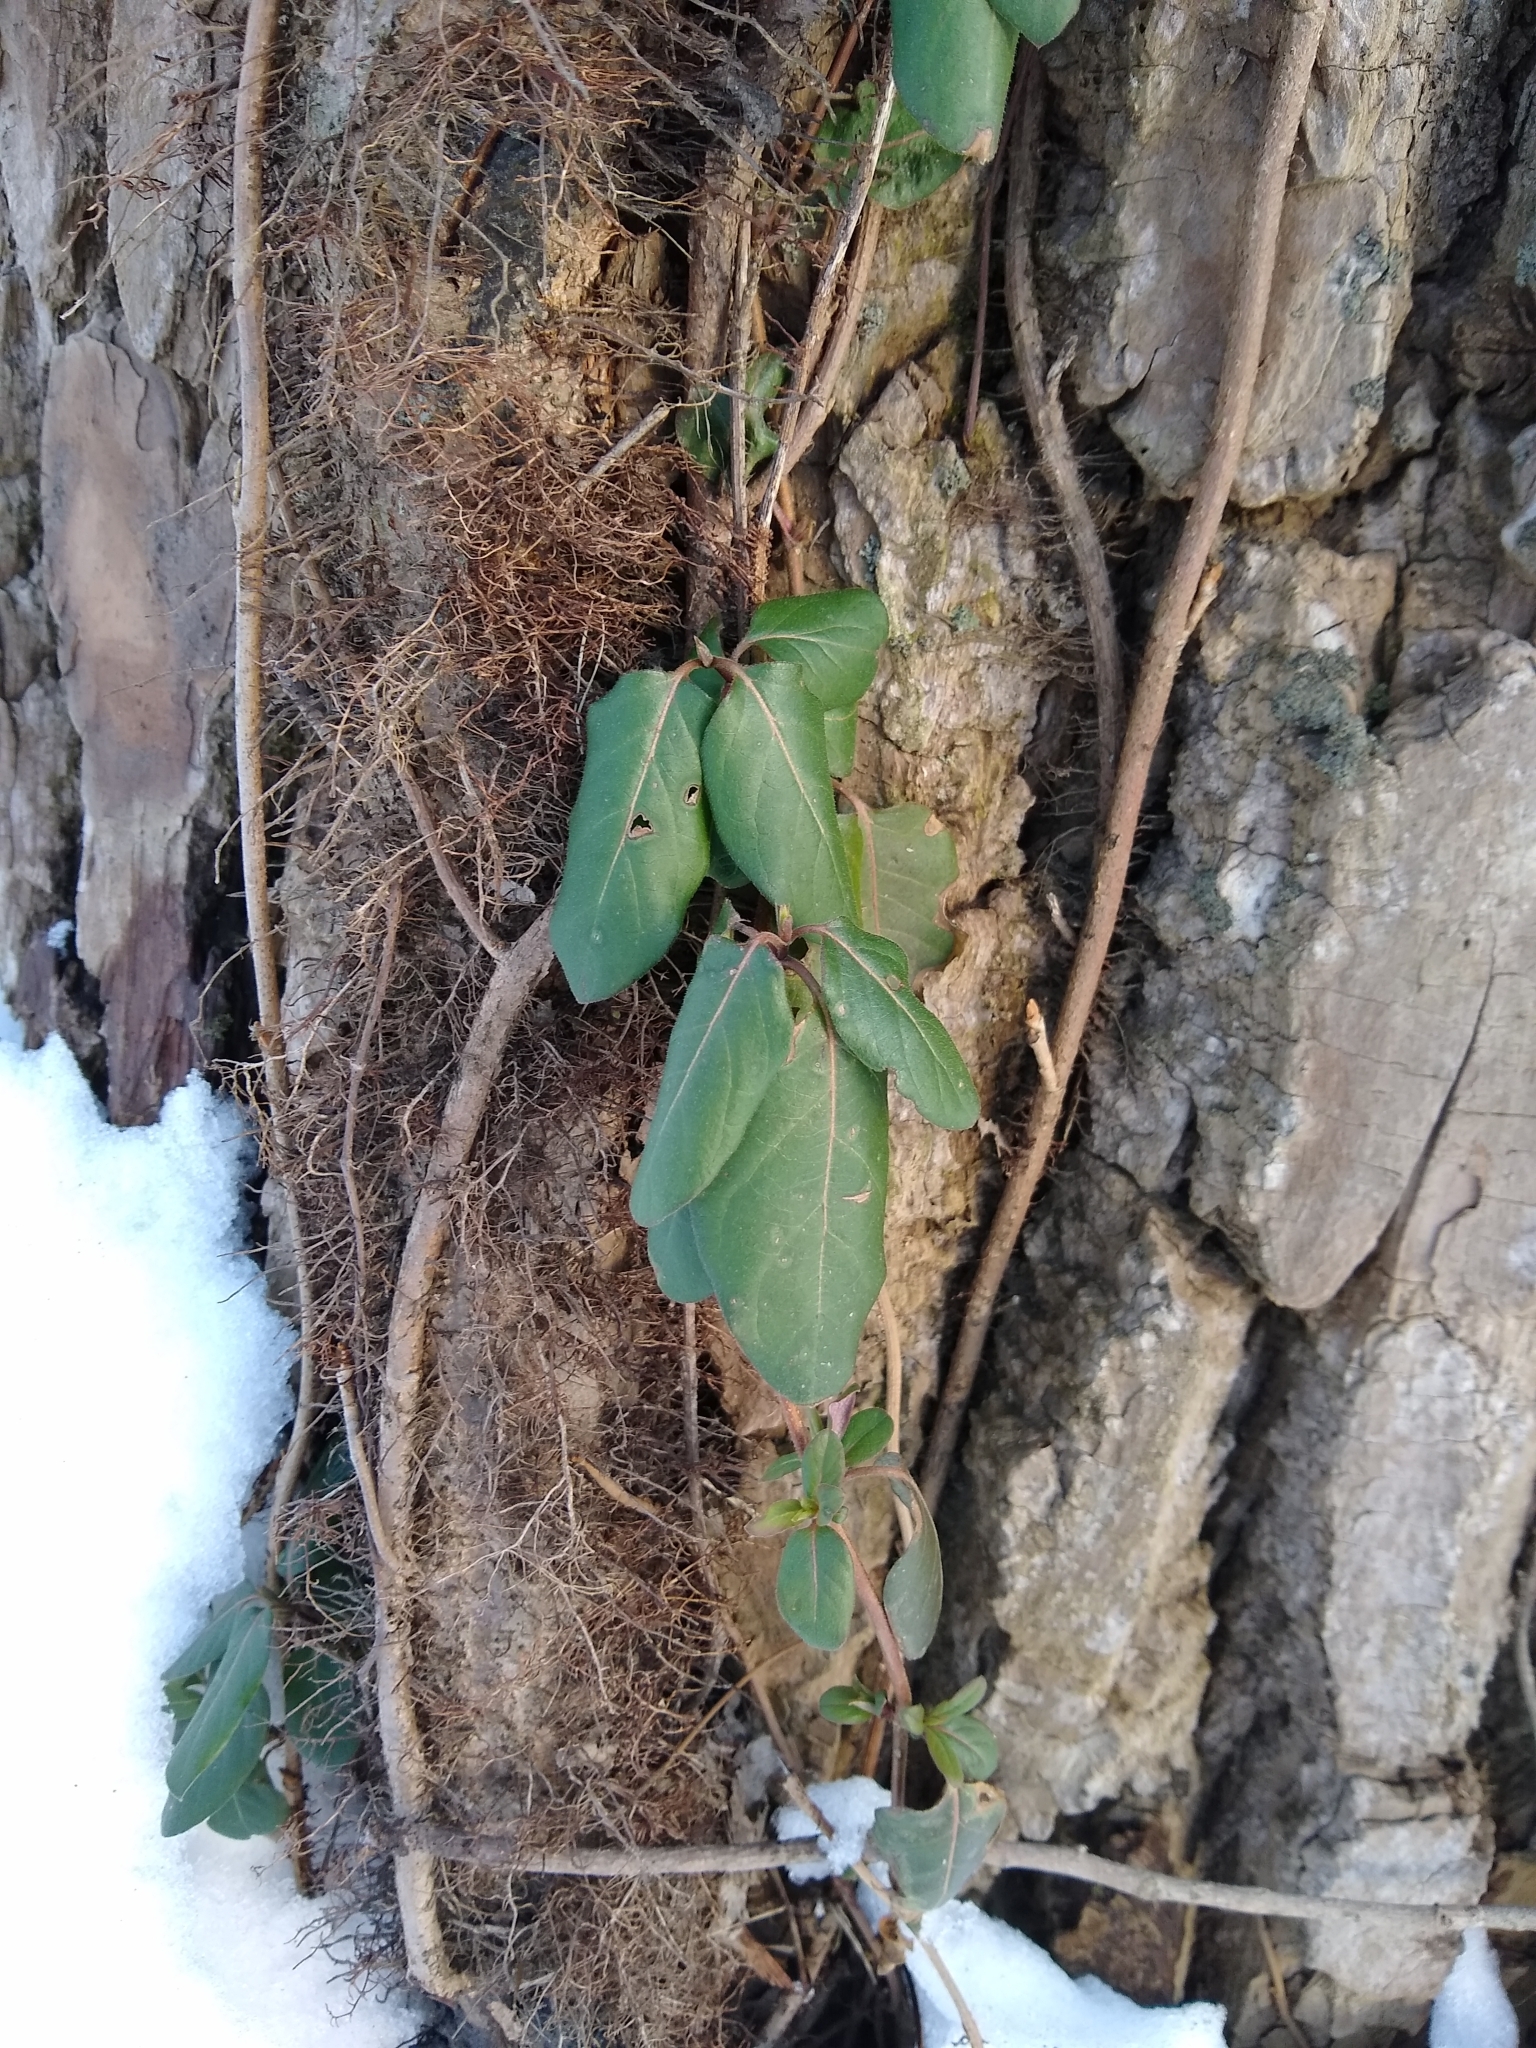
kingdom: Plantae
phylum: Tracheophyta
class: Magnoliopsida
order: Dipsacales
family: Caprifoliaceae
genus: Lonicera
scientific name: Lonicera japonica
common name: Japanese honeysuckle
